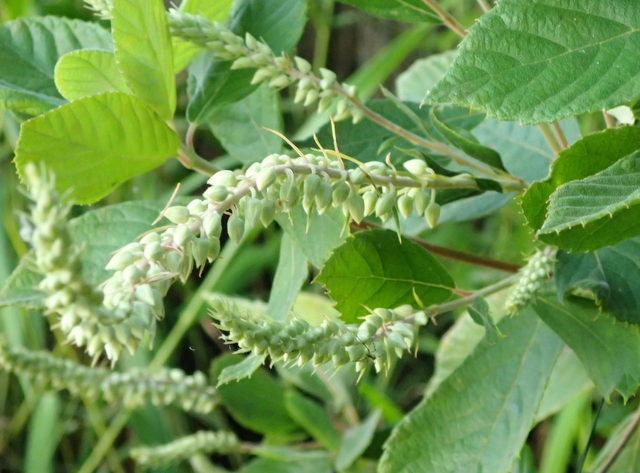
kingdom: Plantae
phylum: Tracheophyta
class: Magnoliopsida
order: Ericales
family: Clethraceae
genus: Clethra
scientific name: Clethra alnifolia
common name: Sweet pepperbush
